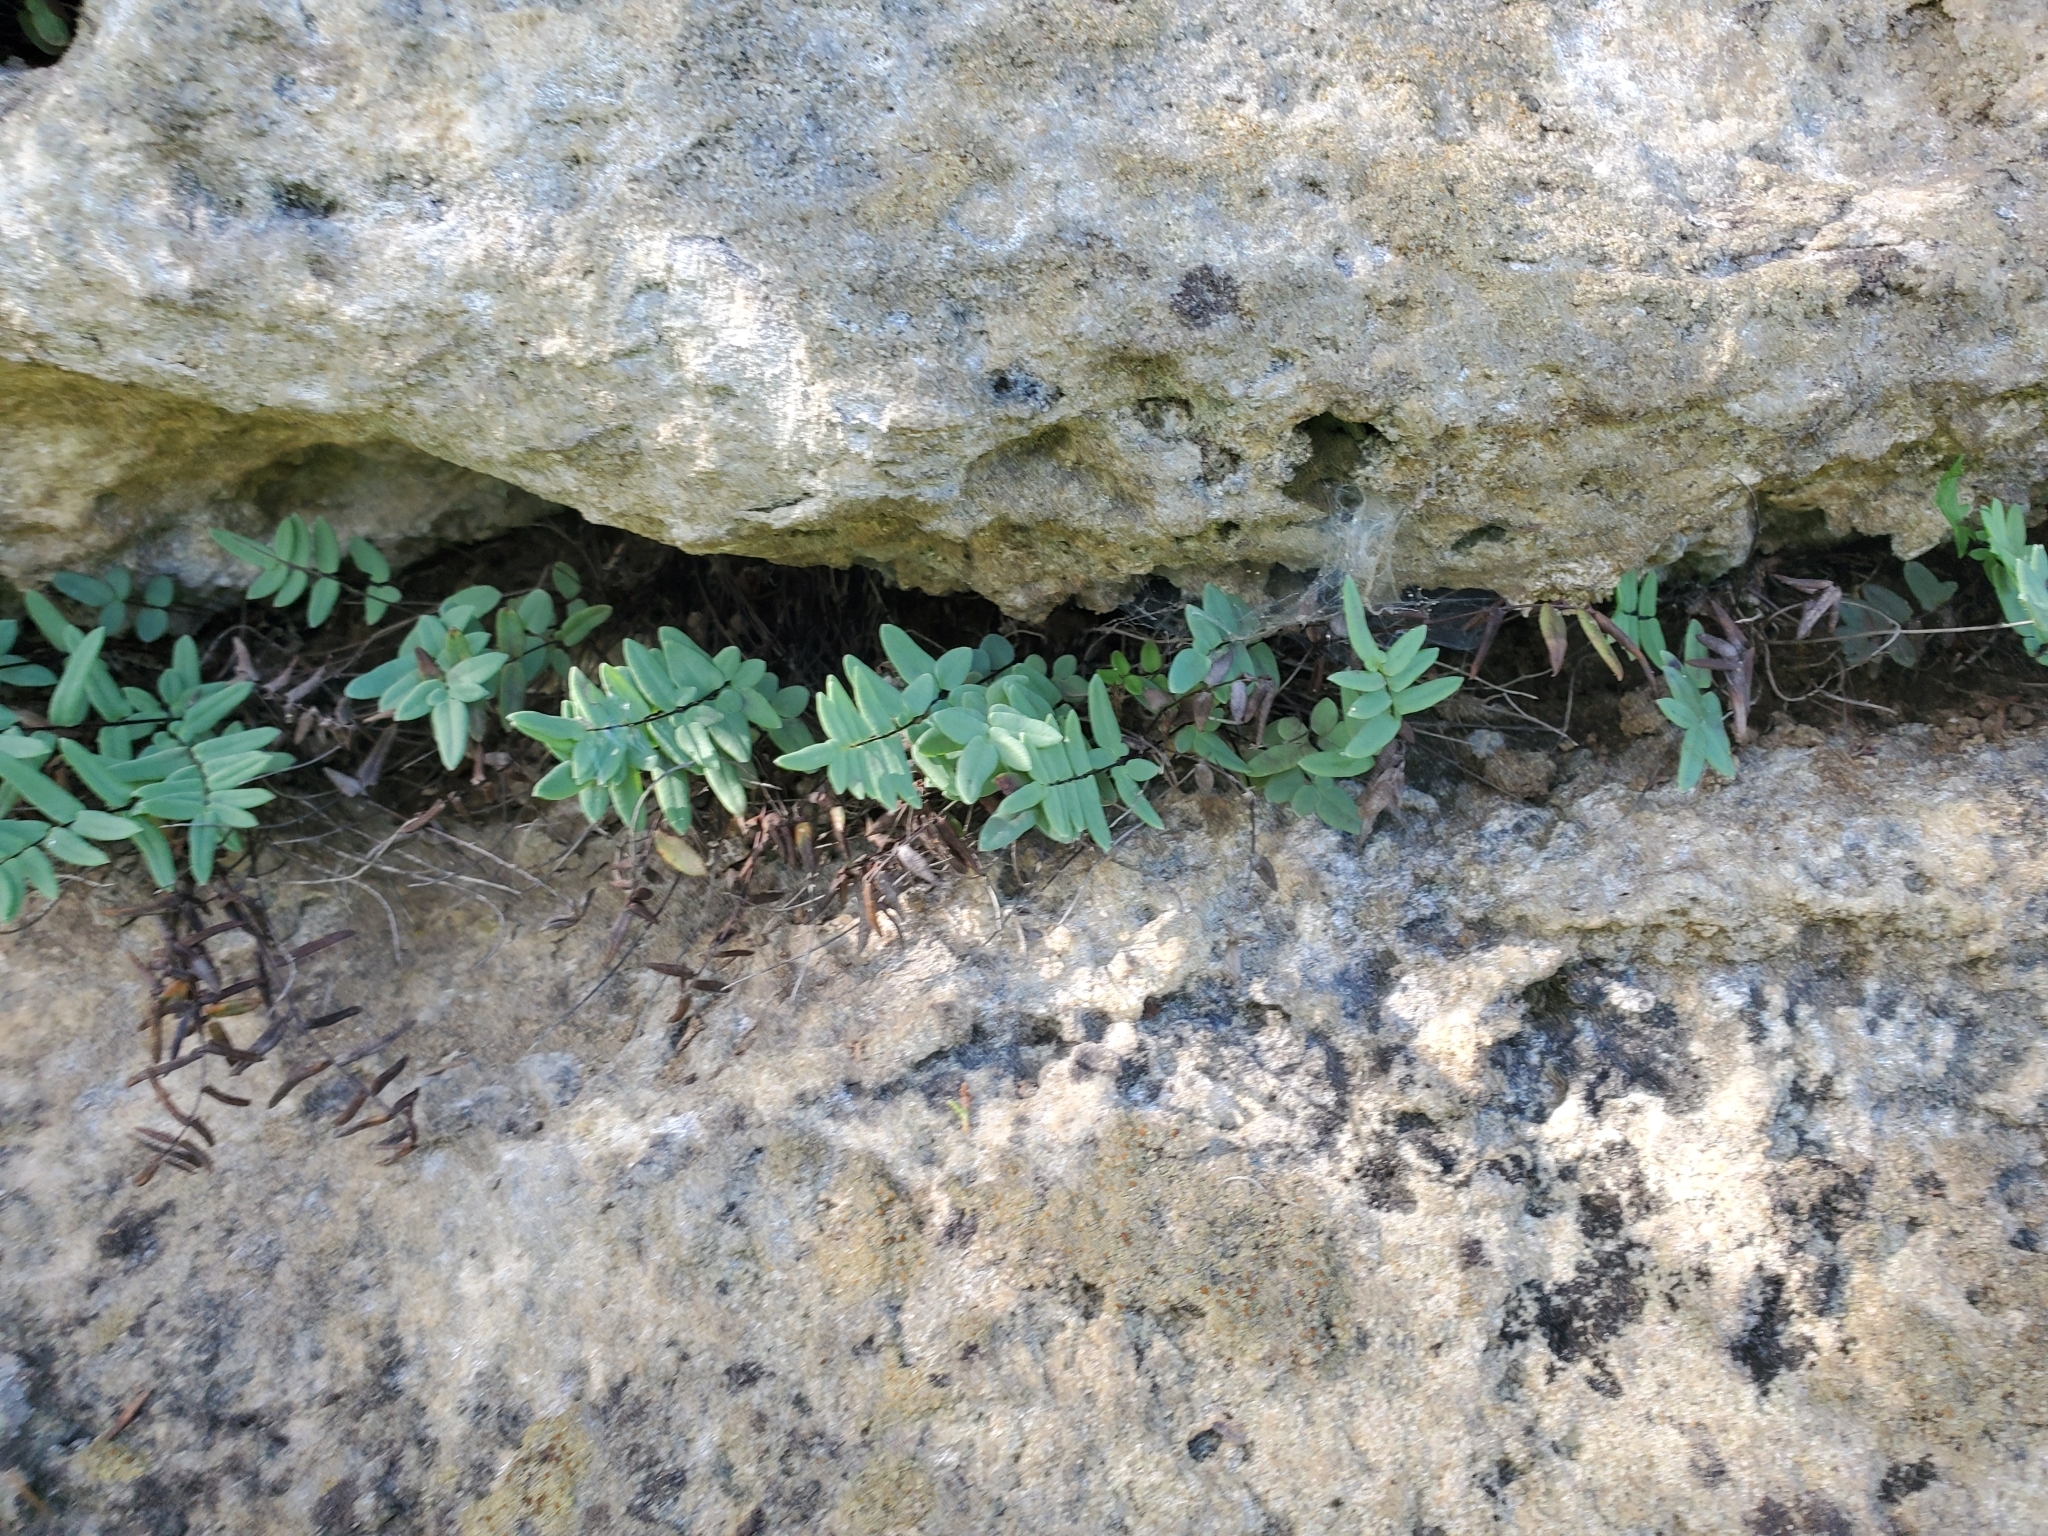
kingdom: Plantae
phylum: Tracheophyta
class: Polypodiopsida
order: Polypodiales
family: Pteridaceae
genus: Pellaea
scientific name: Pellaea glabella
